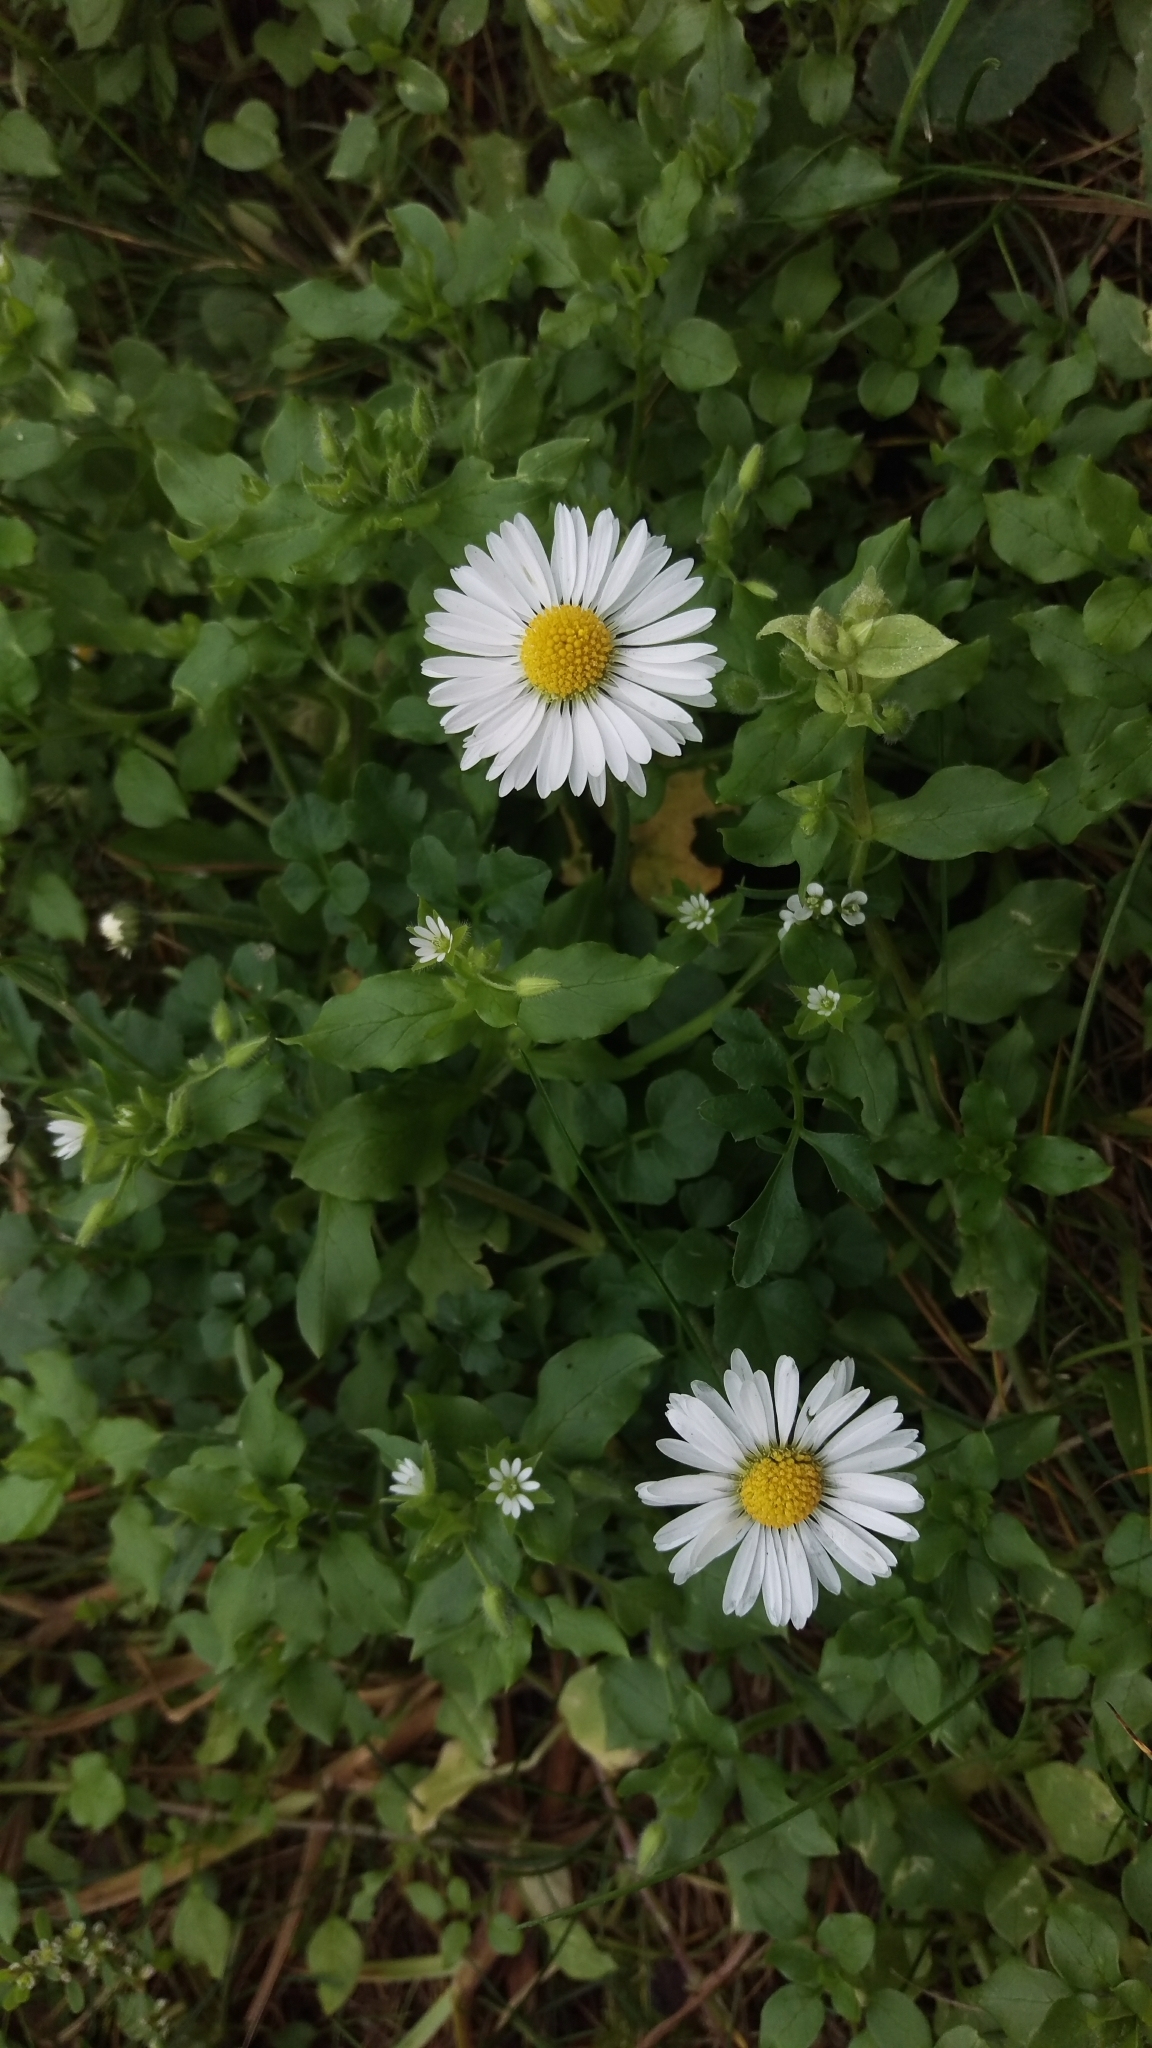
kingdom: Plantae
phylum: Tracheophyta
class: Magnoliopsida
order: Asterales
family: Asteraceae
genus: Bellis
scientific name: Bellis perennis
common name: Lawndaisy
